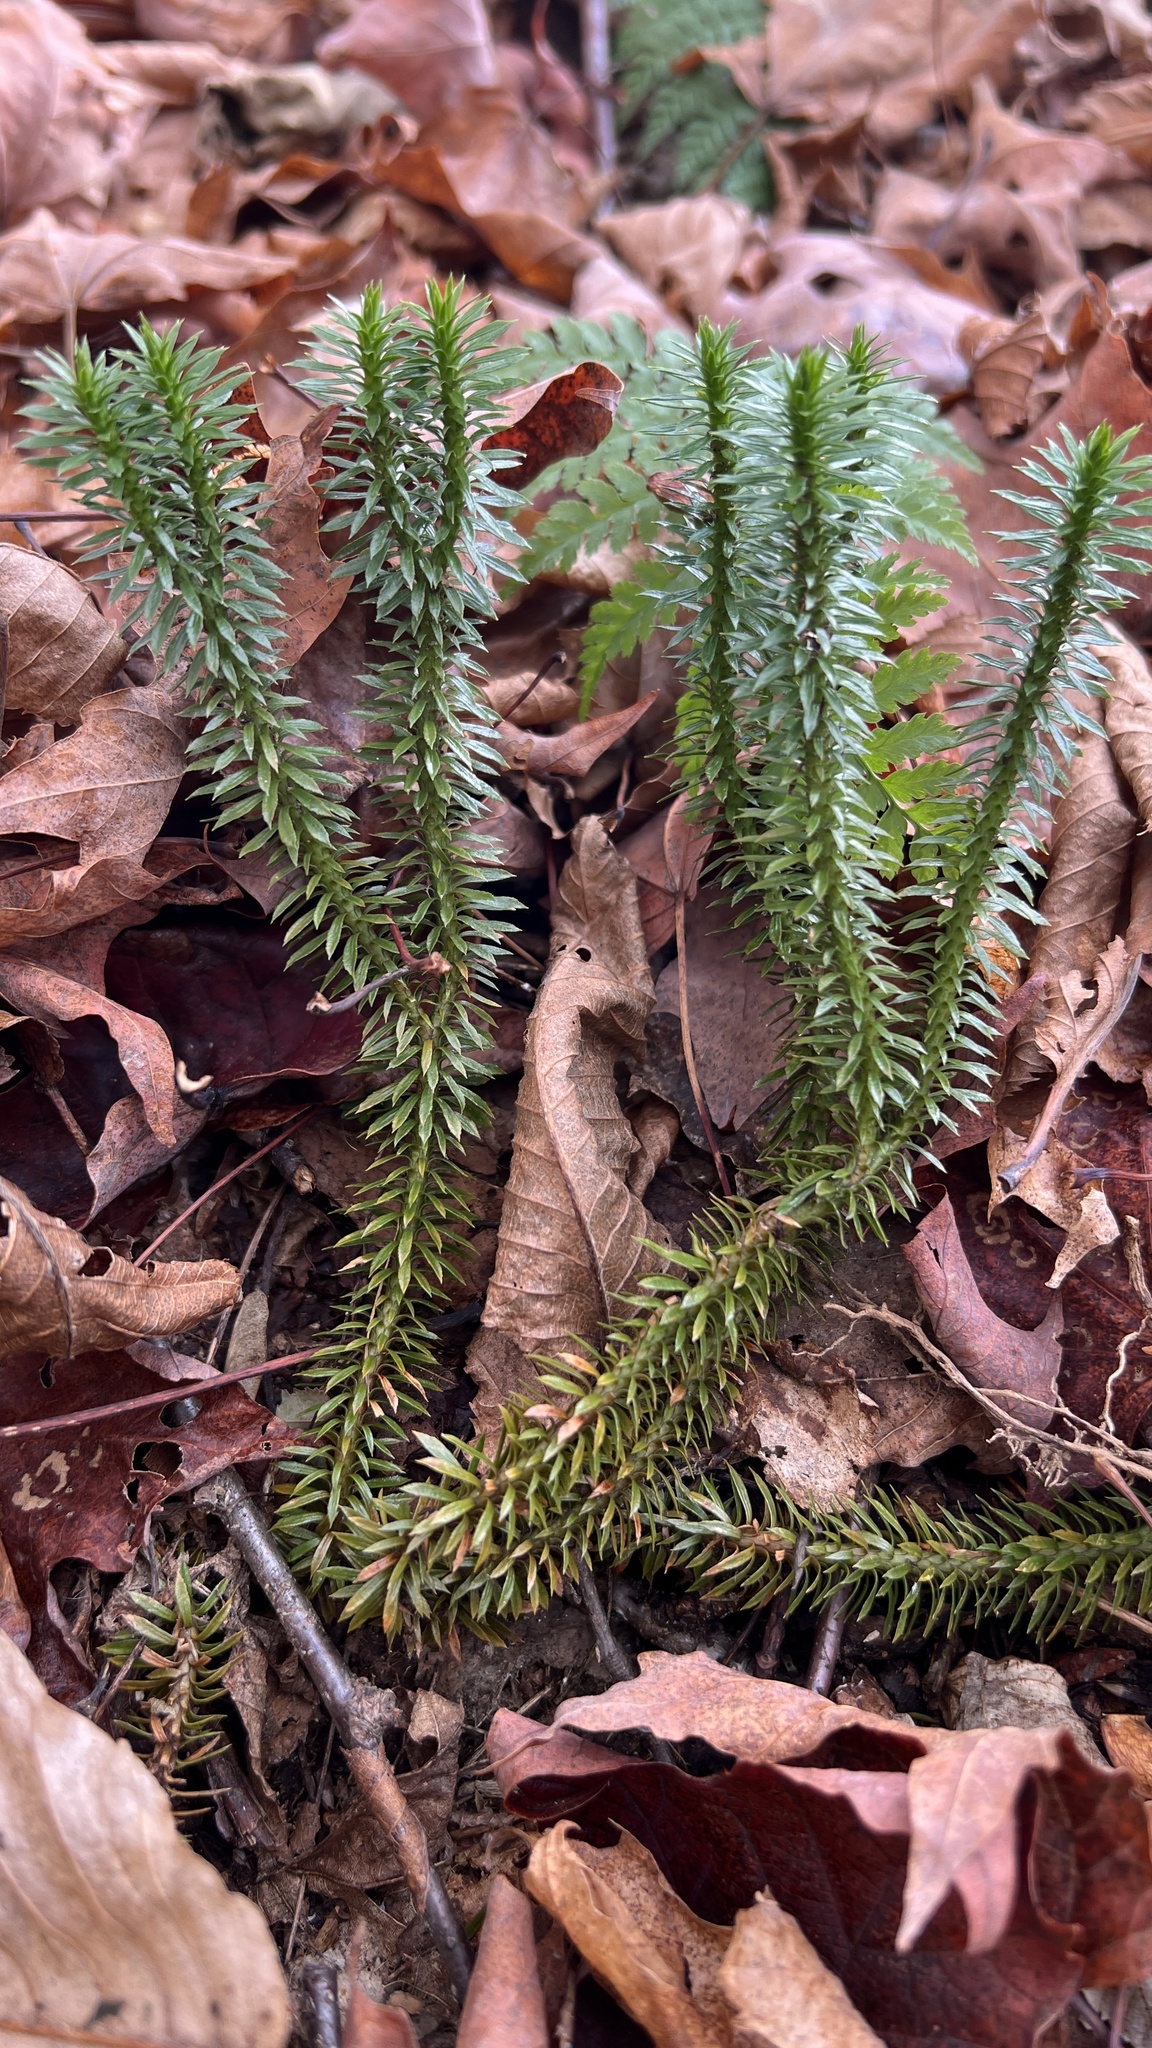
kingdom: Plantae
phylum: Tracheophyta
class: Lycopodiopsida
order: Lycopodiales
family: Lycopodiaceae
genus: Huperzia
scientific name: Huperzia lucidula
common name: Shining clubmoss
